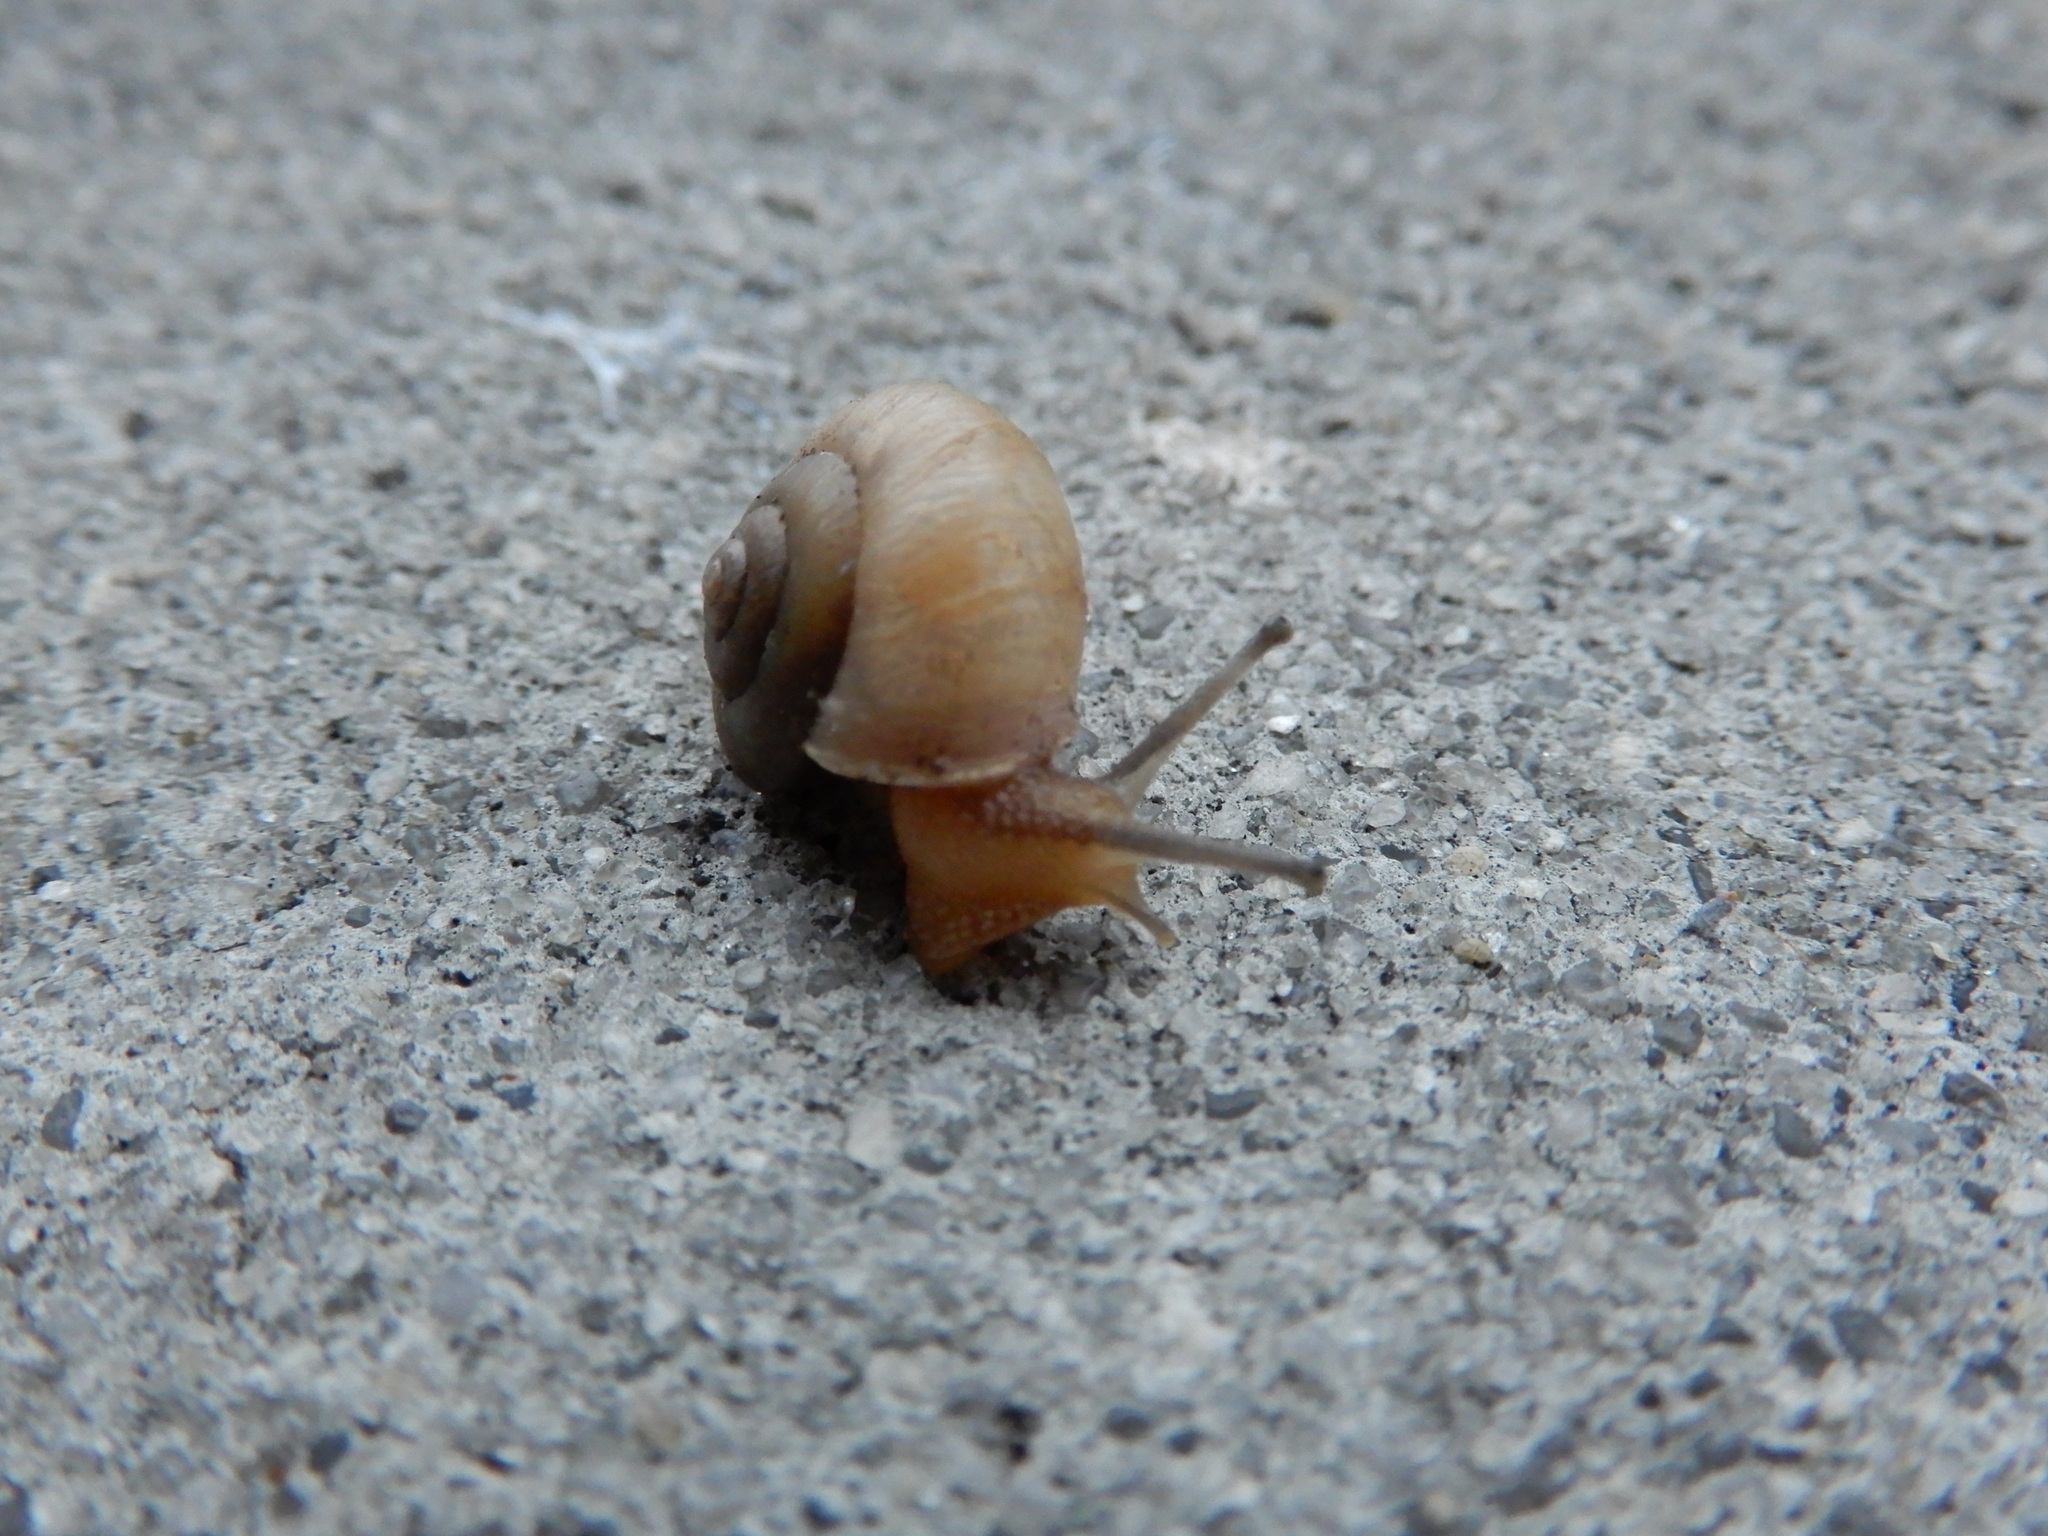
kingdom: Animalia
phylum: Mollusca
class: Gastropoda
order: Stylommatophora
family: Camaenidae
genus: Bradybaena
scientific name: Bradybaena similaris
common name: Asian trampsnail
